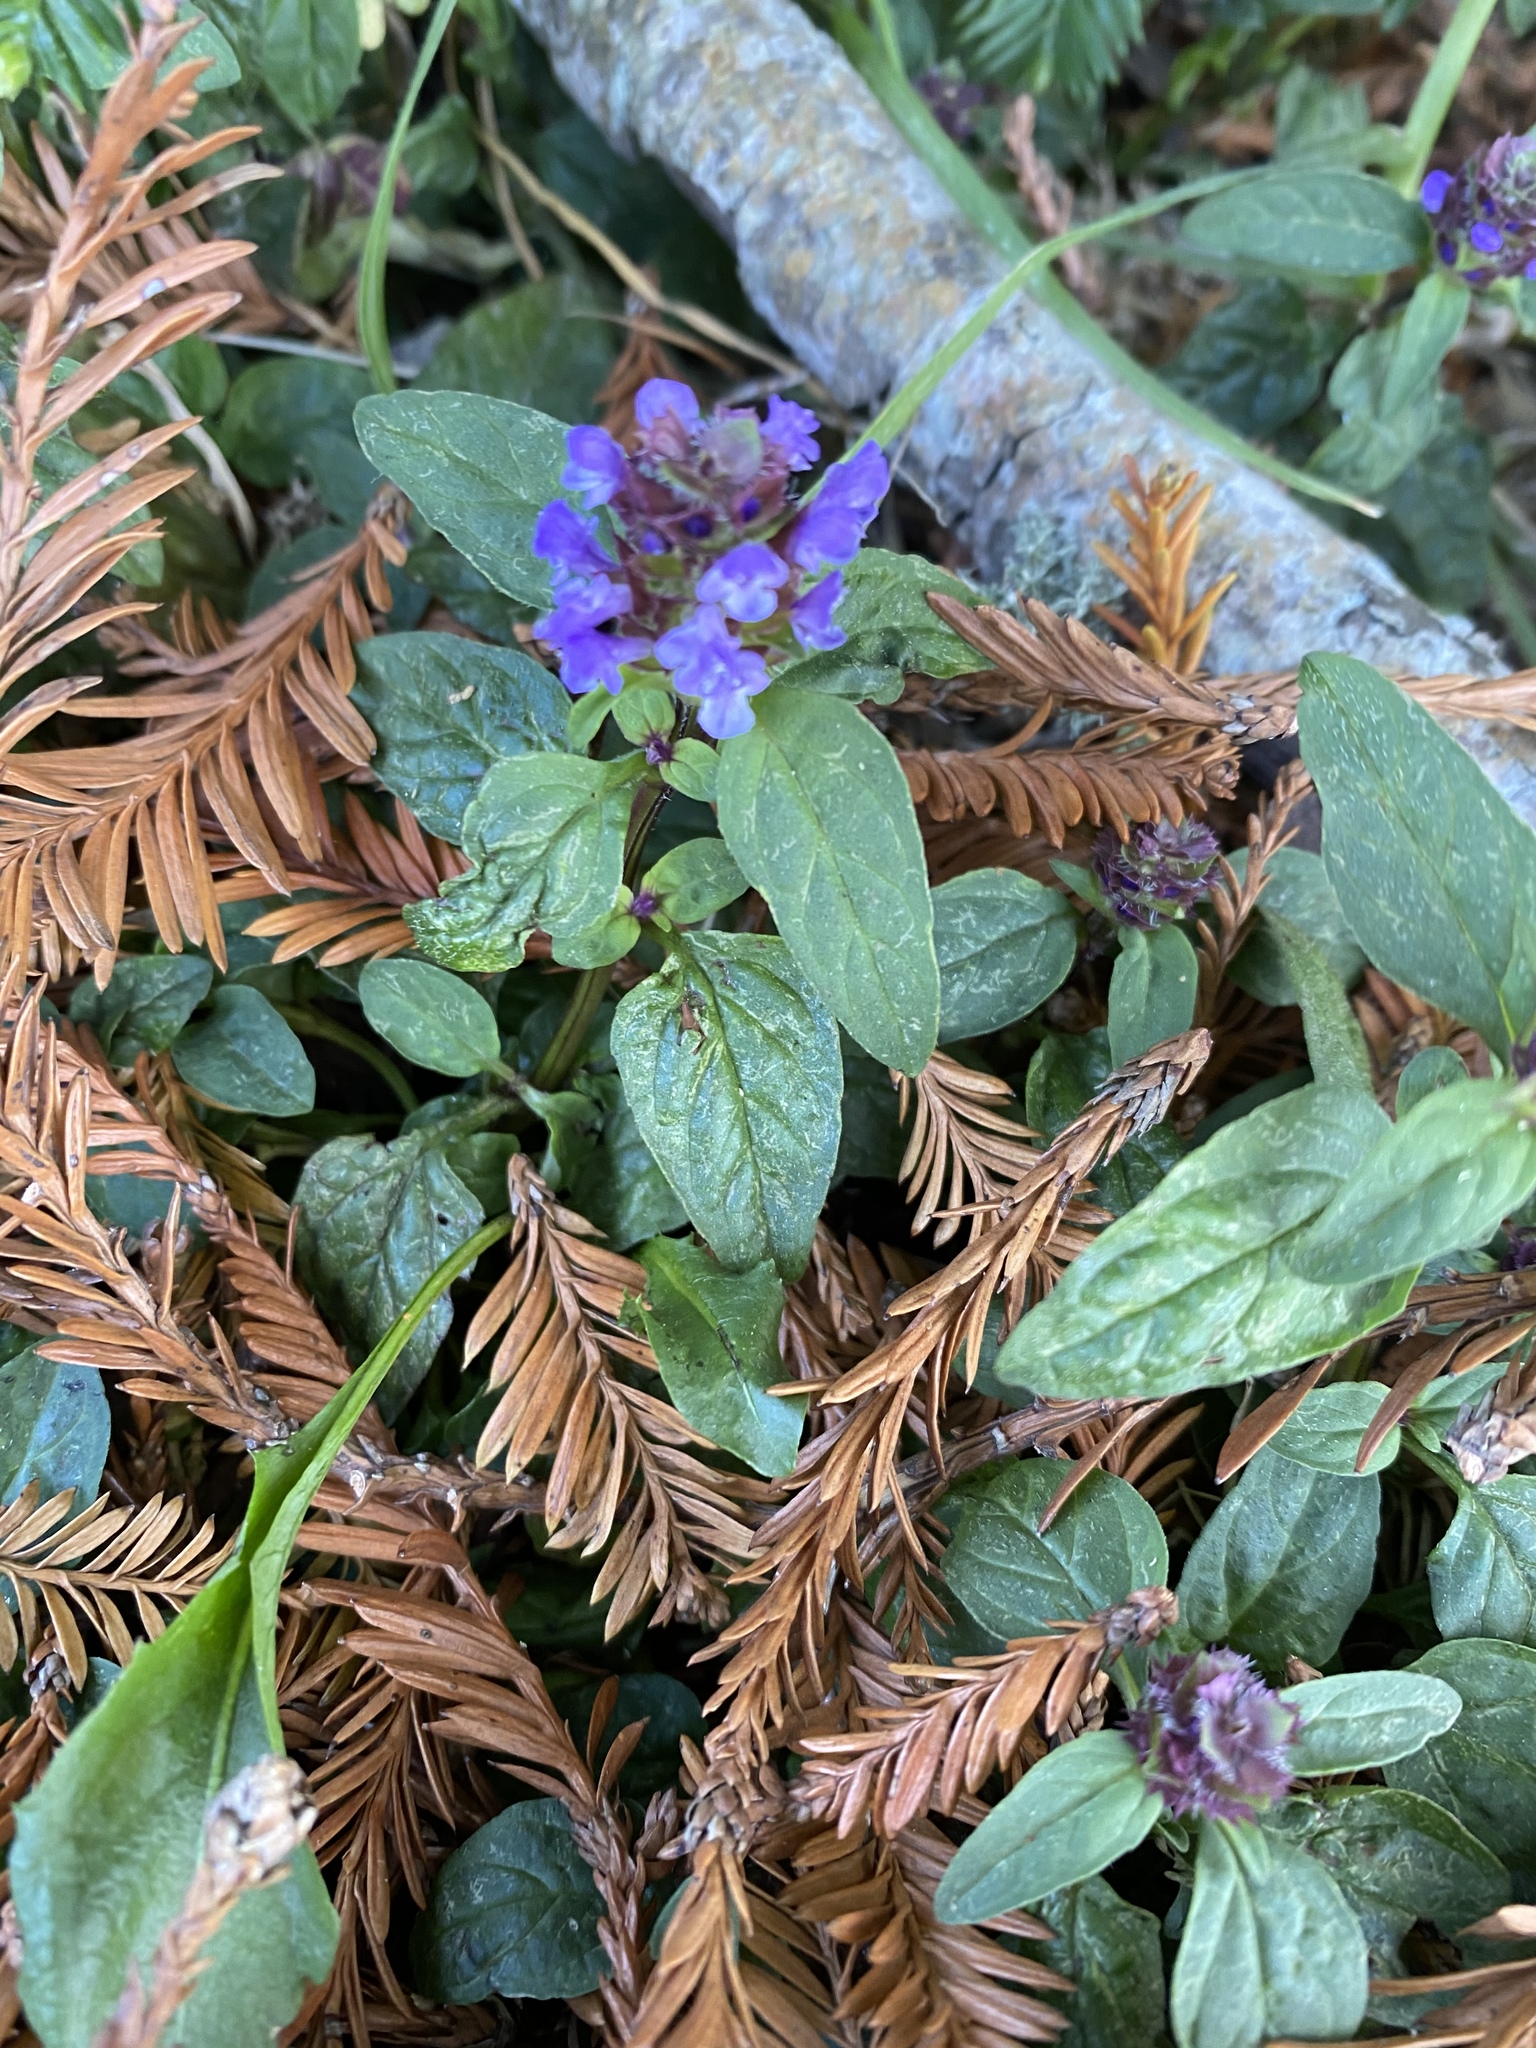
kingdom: Plantae
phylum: Tracheophyta
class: Magnoliopsida
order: Lamiales
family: Lamiaceae
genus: Prunella
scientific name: Prunella vulgaris
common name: Heal-all
